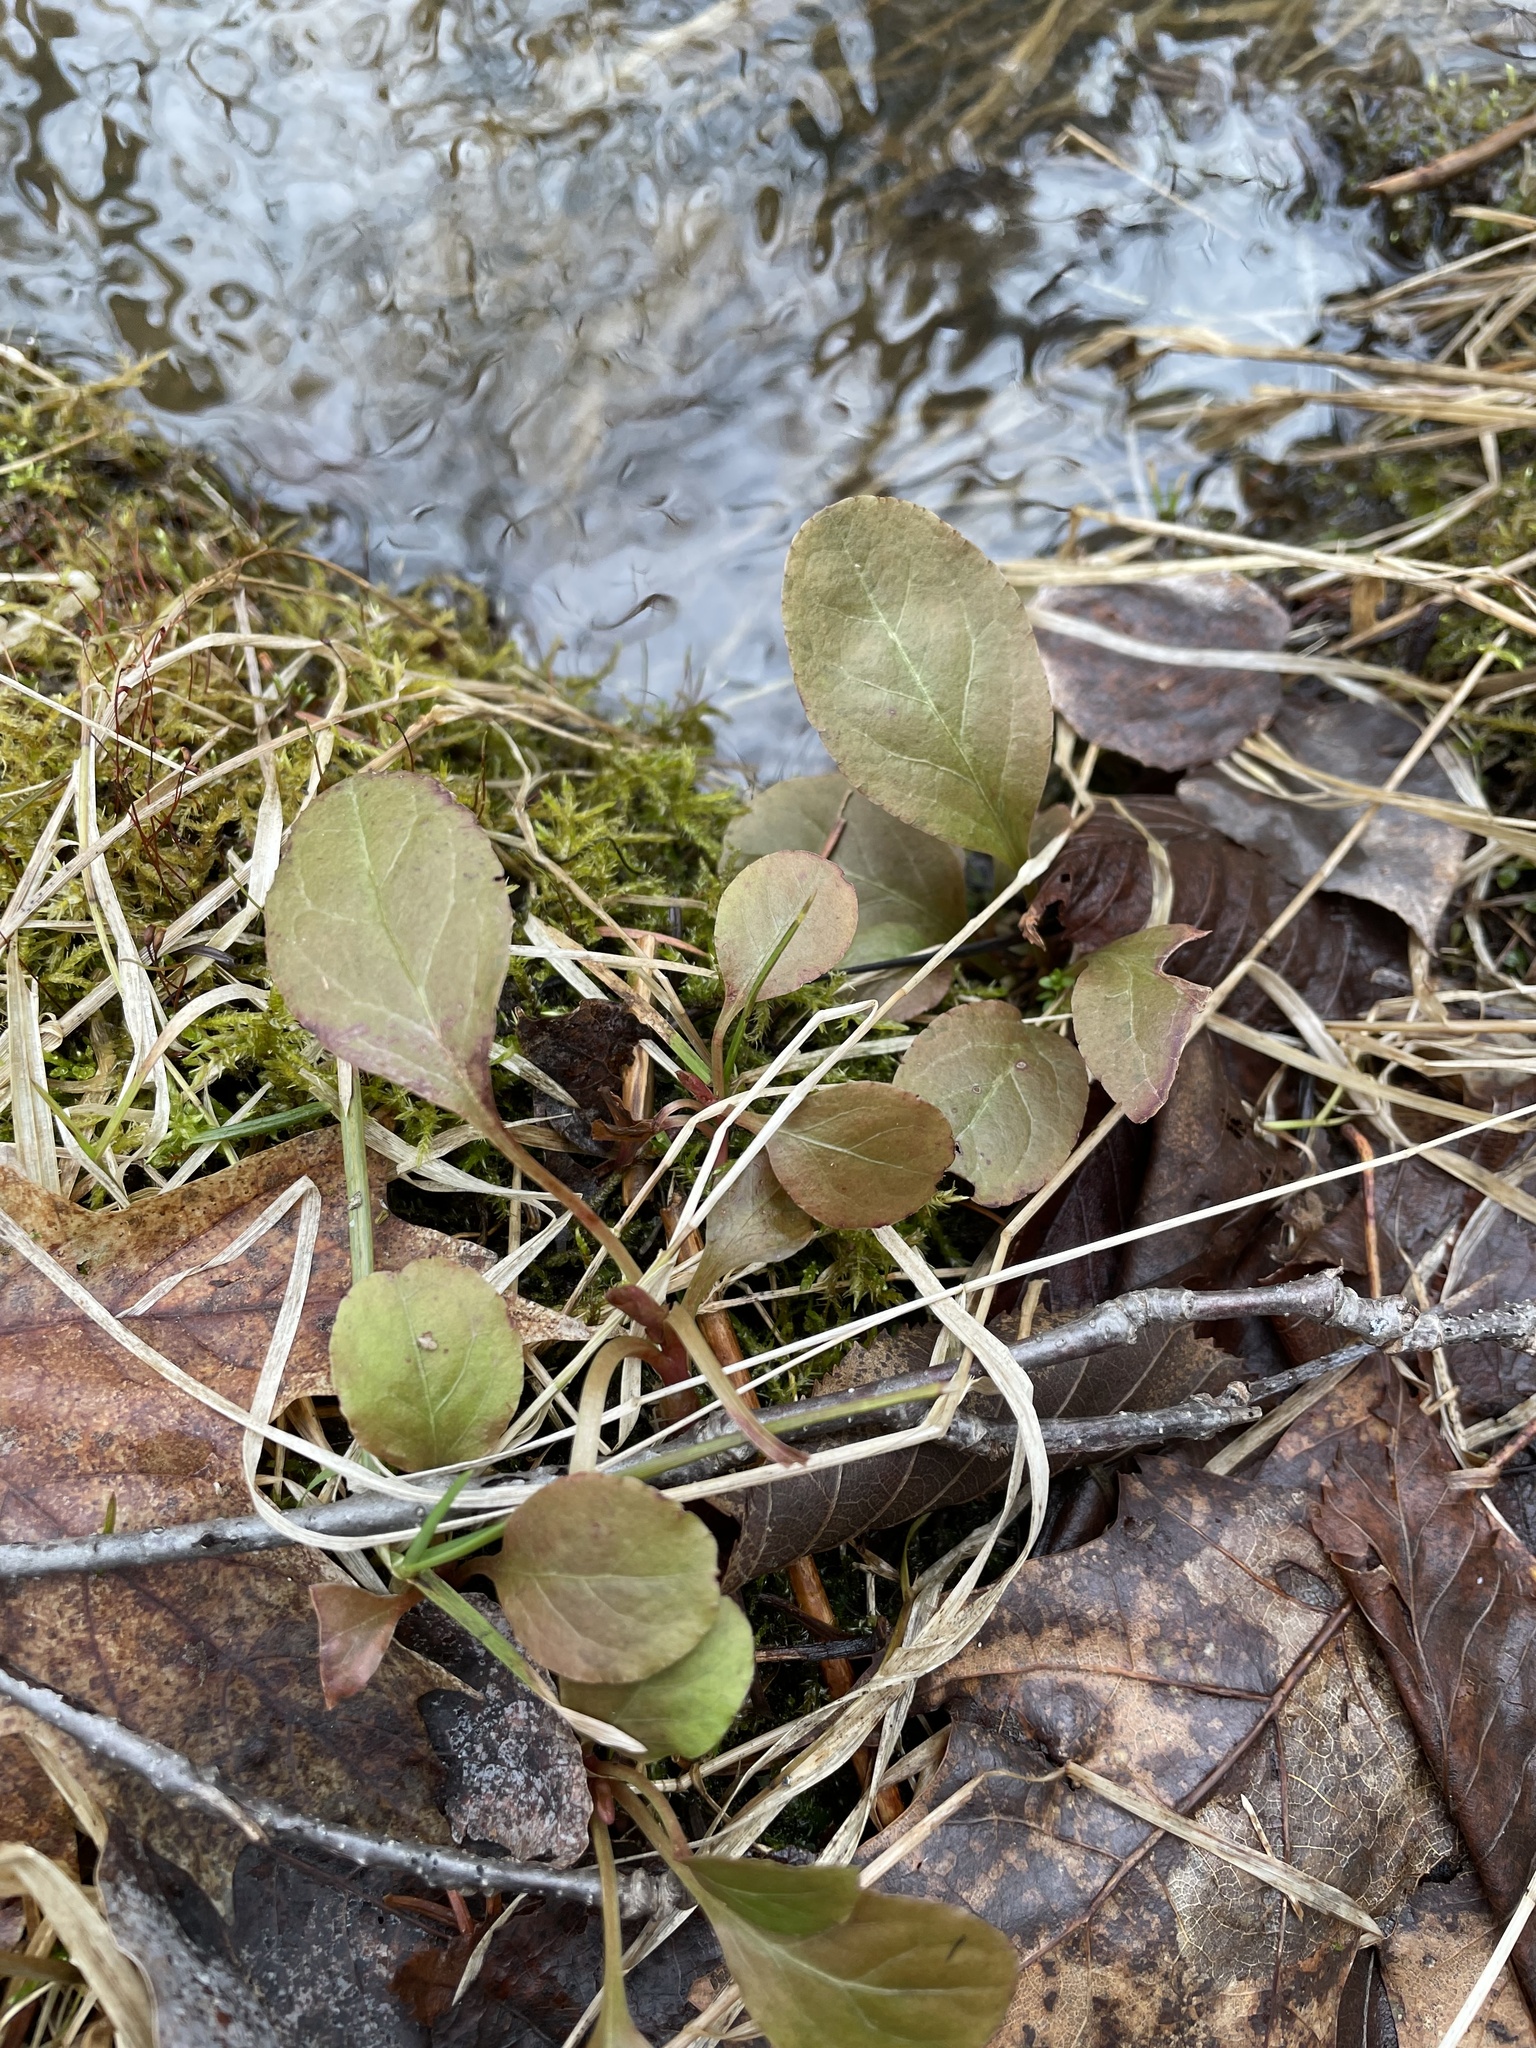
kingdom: Plantae
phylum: Tracheophyta
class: Magnoliopsida
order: Ericales
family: Ericaceae
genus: Pyrola
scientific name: Pyrola elliptica
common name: Shinleaf
